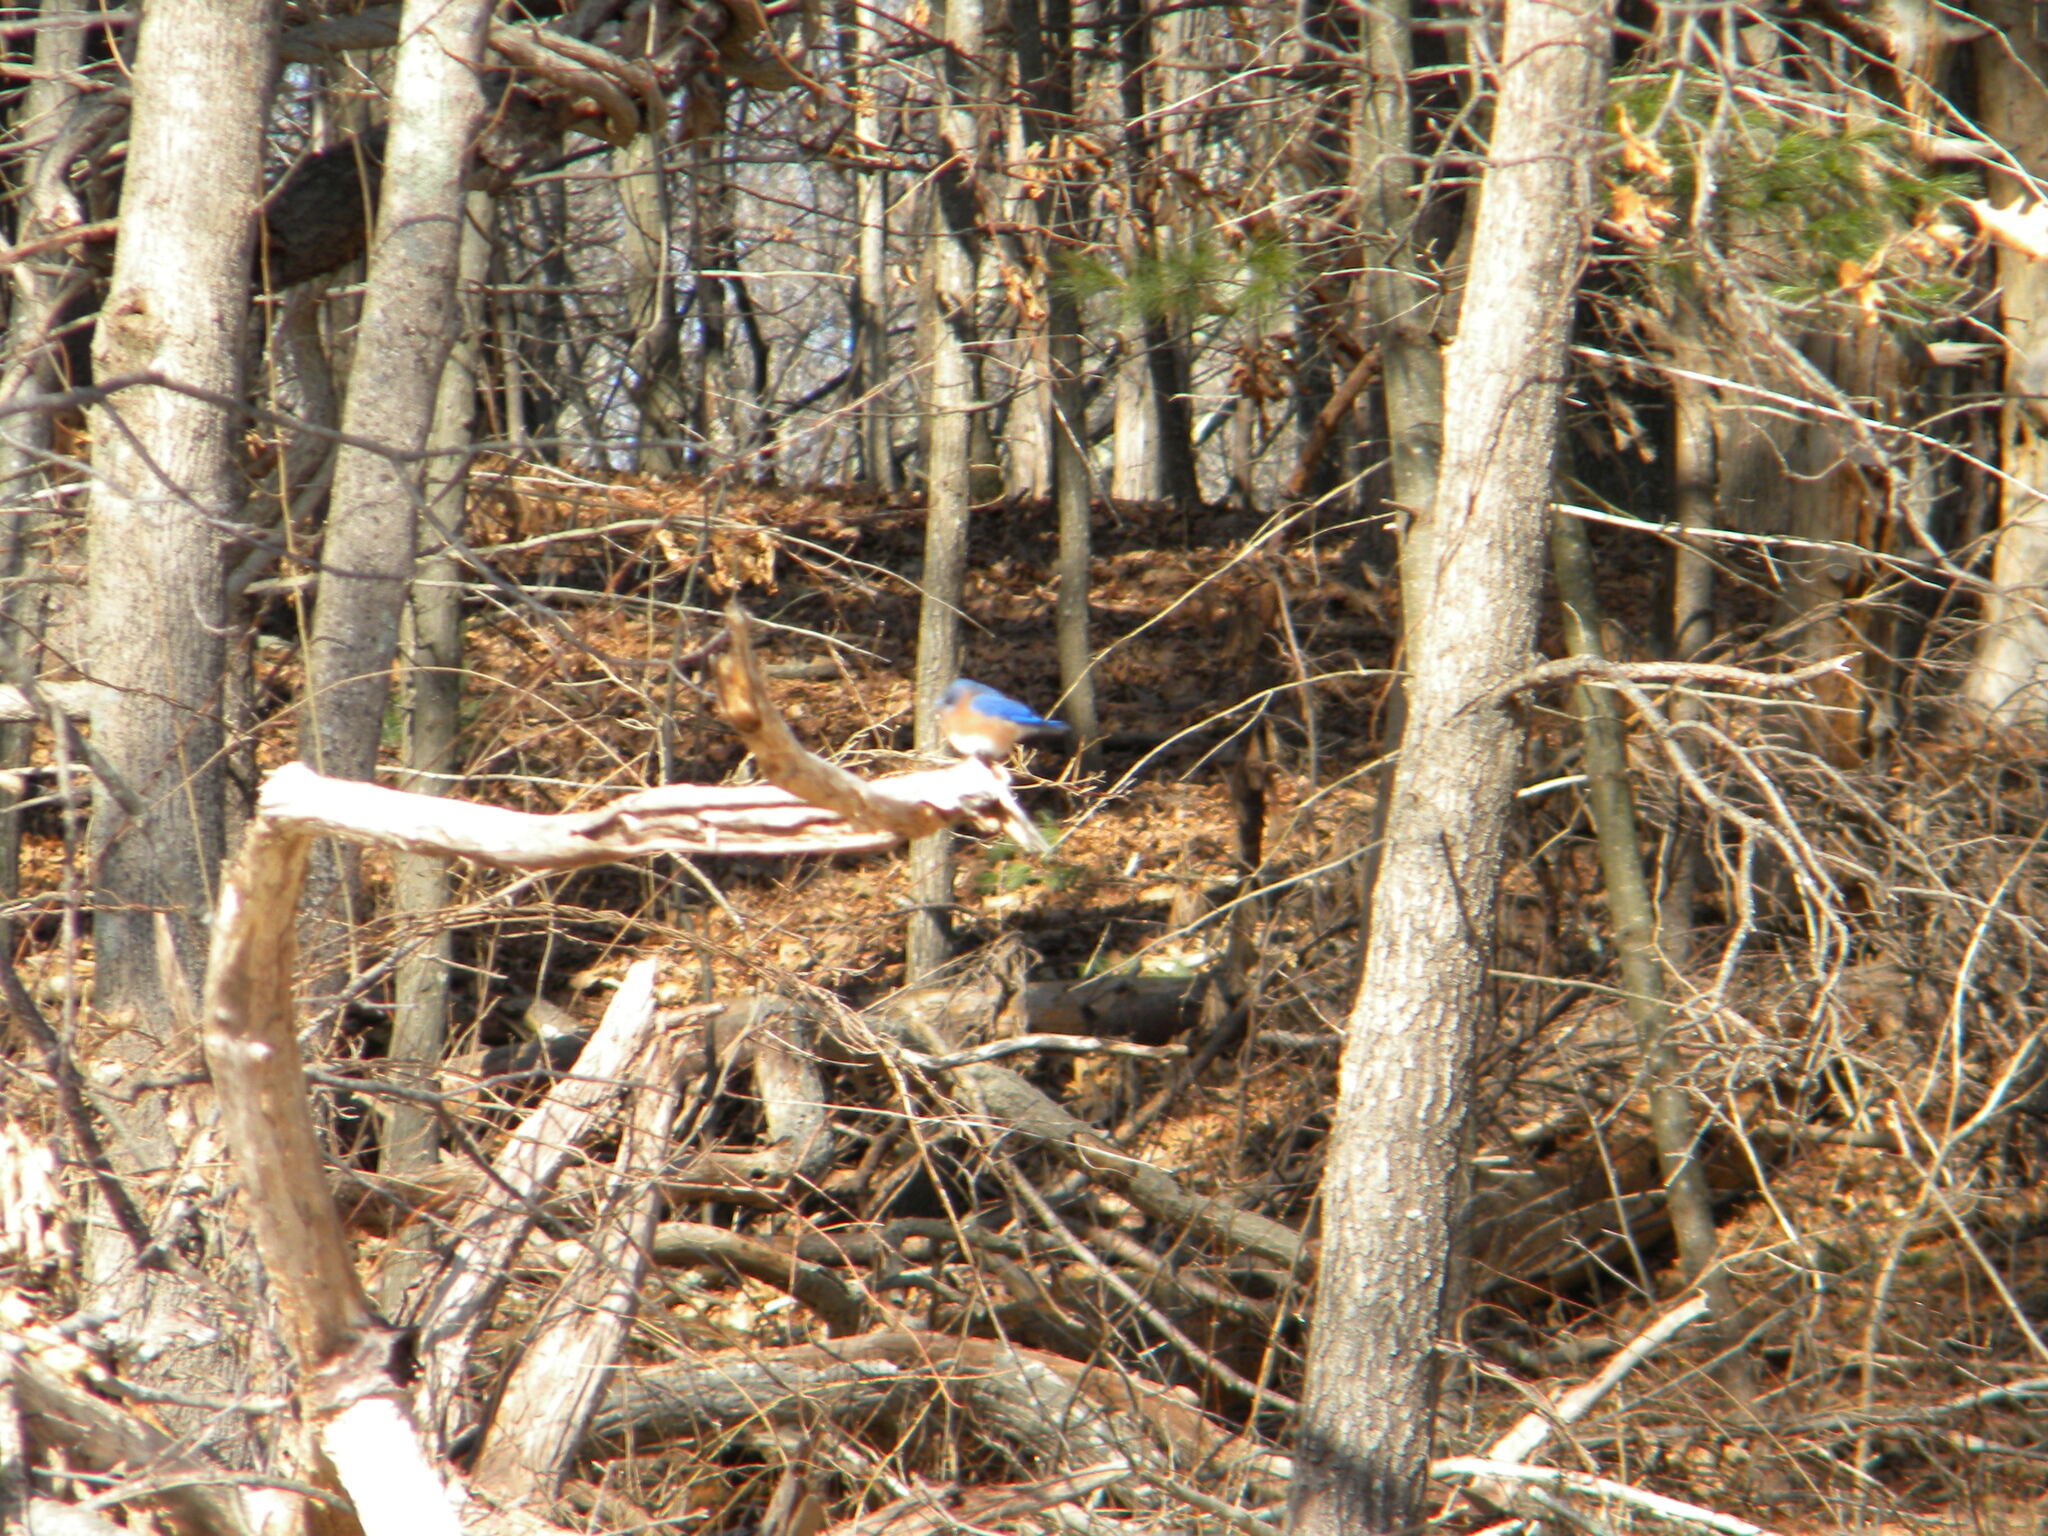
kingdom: Animalia
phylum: Chordata
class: Aves
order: Passeriformes
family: Turdidae
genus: Sialia
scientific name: Sialia sialis
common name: Eastern bluebird
